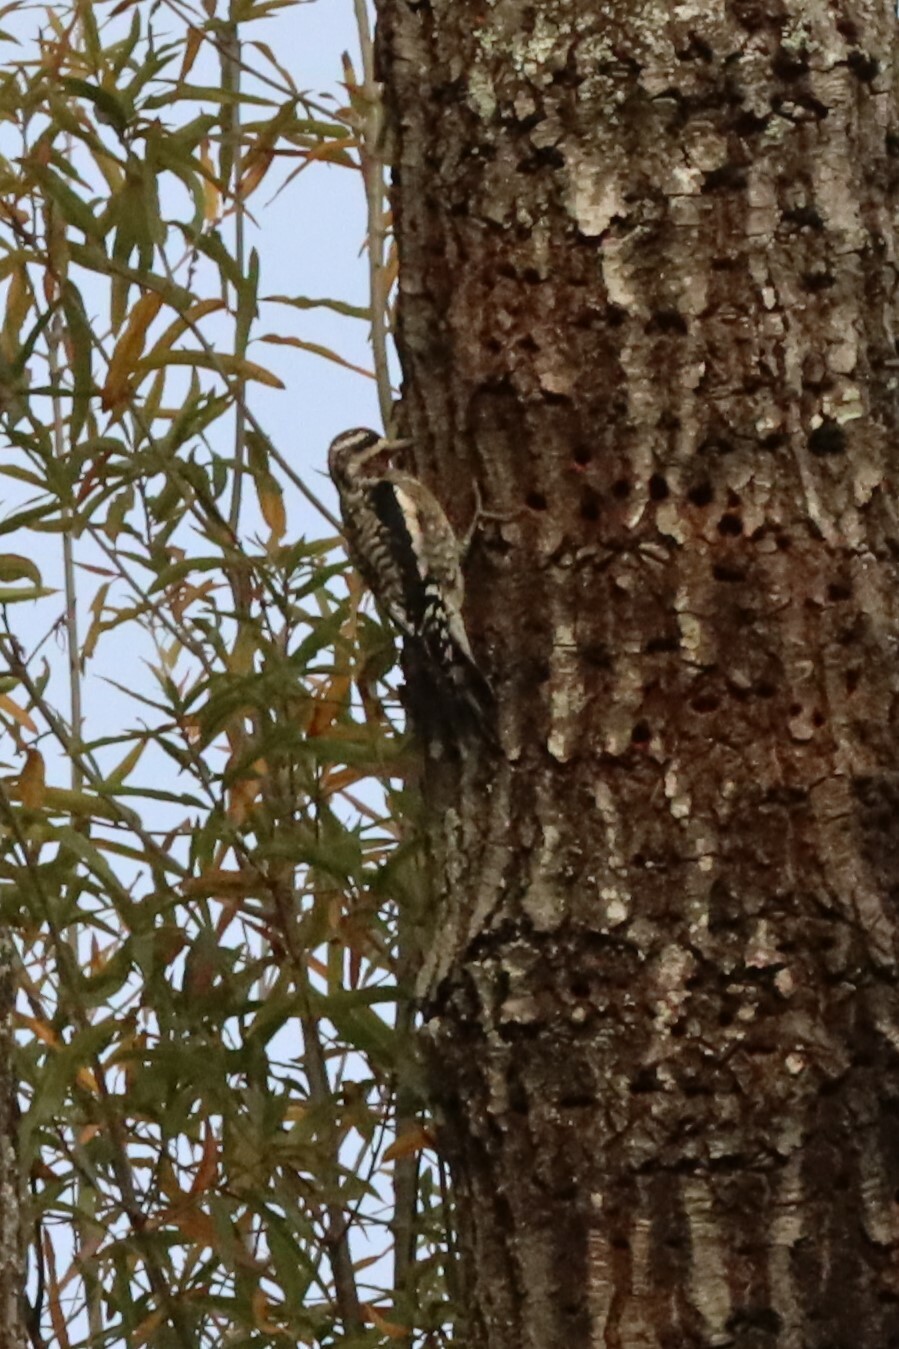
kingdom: Animalia
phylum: Chordata
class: Aves
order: Piciformes
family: Picidae
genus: Sphyrapicus
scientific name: Sphyrapicus varius
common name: Yellow-bellied sapsucker
